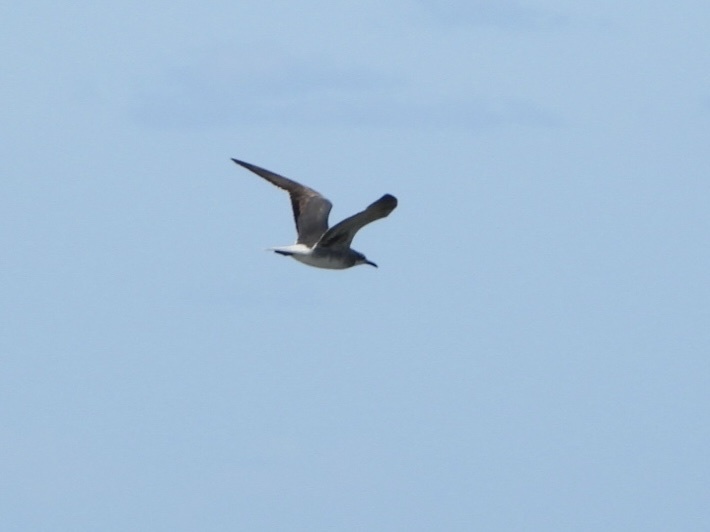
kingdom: Animalia
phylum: Chordata
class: Aves
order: Charadriiformes
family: Laridae
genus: Leucophaeus
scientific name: Leucophaeus atricilla
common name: Laughing gull
